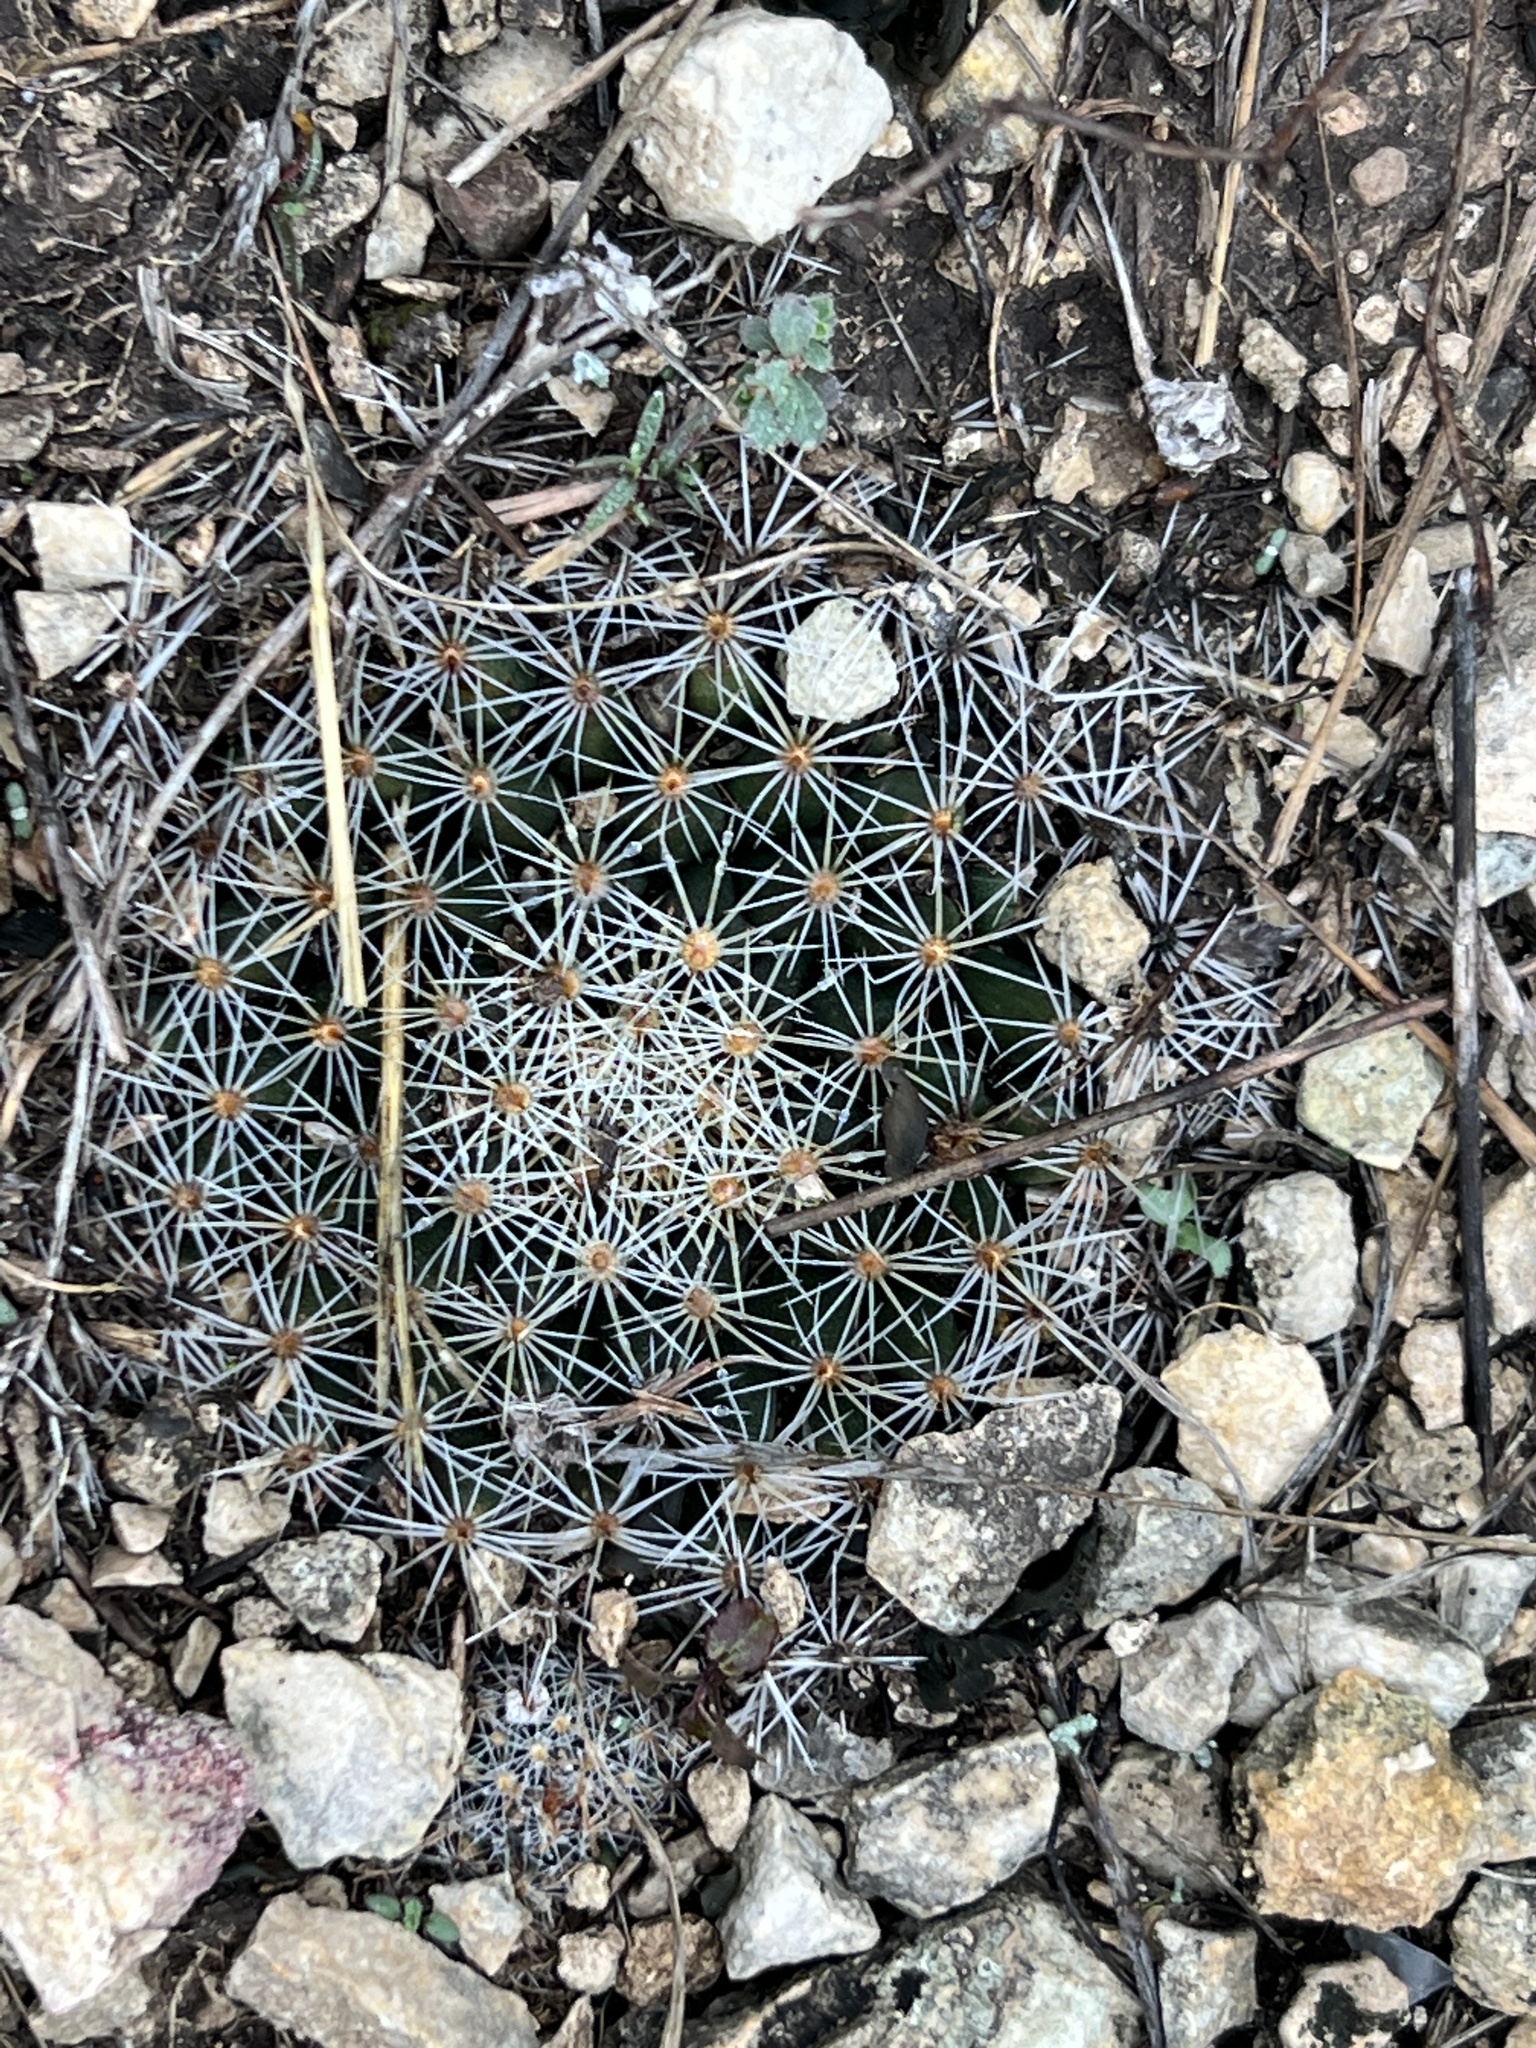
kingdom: Plantae
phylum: Tracheophyta
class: Magnoliopsida
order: Caryophyllales
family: Cactaceae
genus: Mammillaria
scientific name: Mammillaria heyderi
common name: Little nipple cactus
